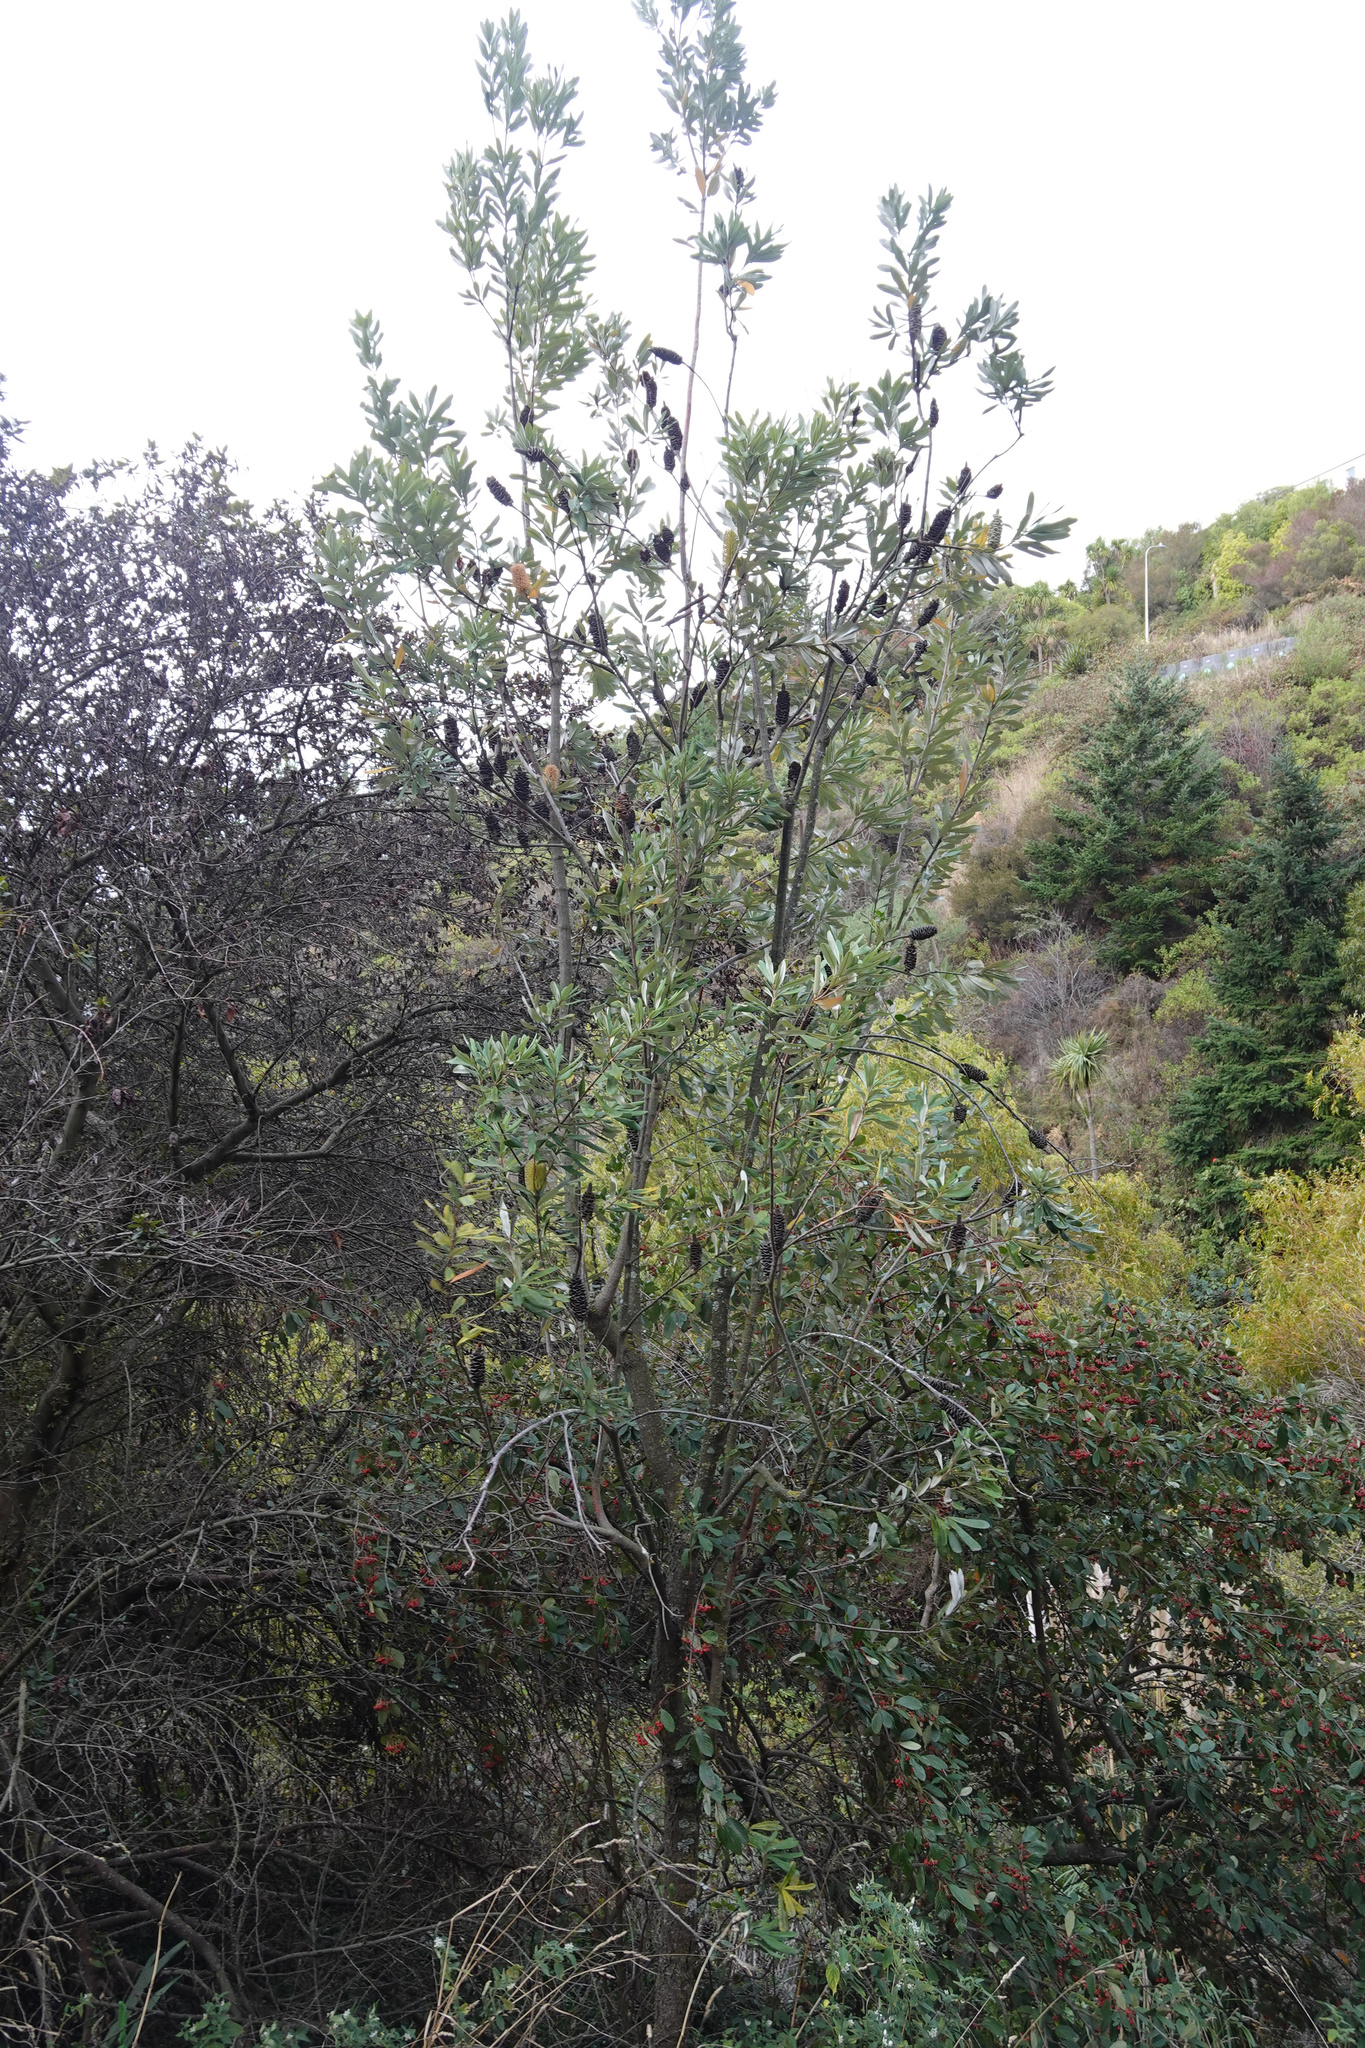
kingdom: Plantae
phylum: Tracheophyta
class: Magnoliopsida
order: Proteales
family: Proteaceae
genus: Banksia
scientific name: Banksia integrifolia
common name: White-honeysuckle
